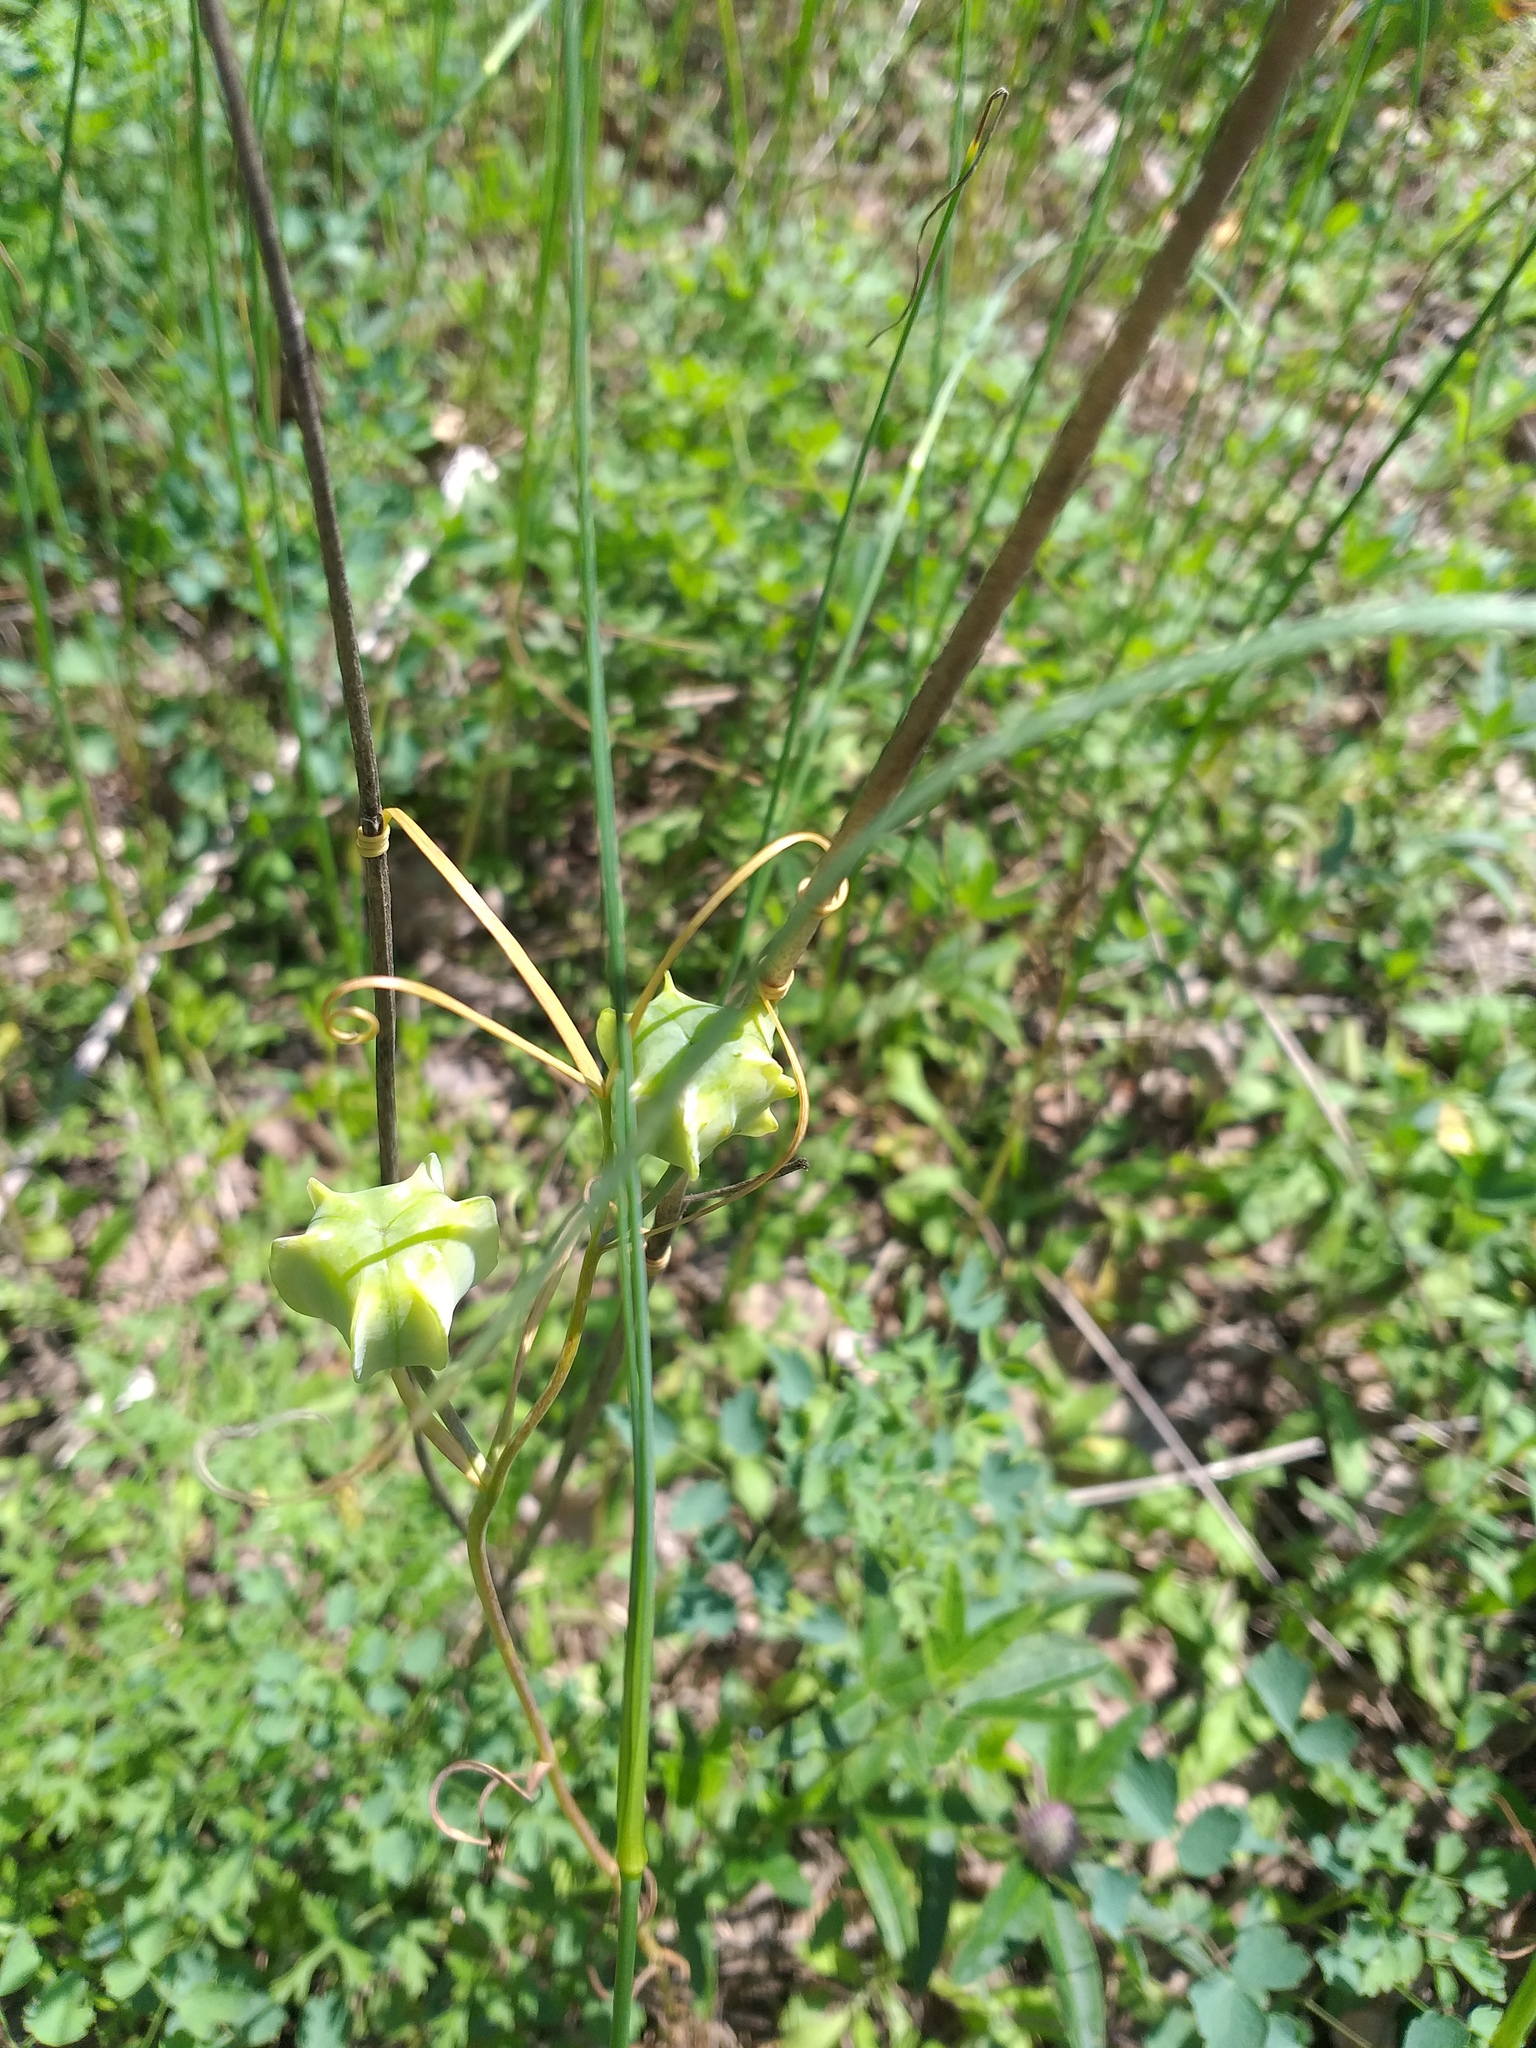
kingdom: Plantae
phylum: Tracheophyta
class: Liliopsida
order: Liliales
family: Liliaceae
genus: Fritillaria
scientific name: Fritillaria ruthenica
